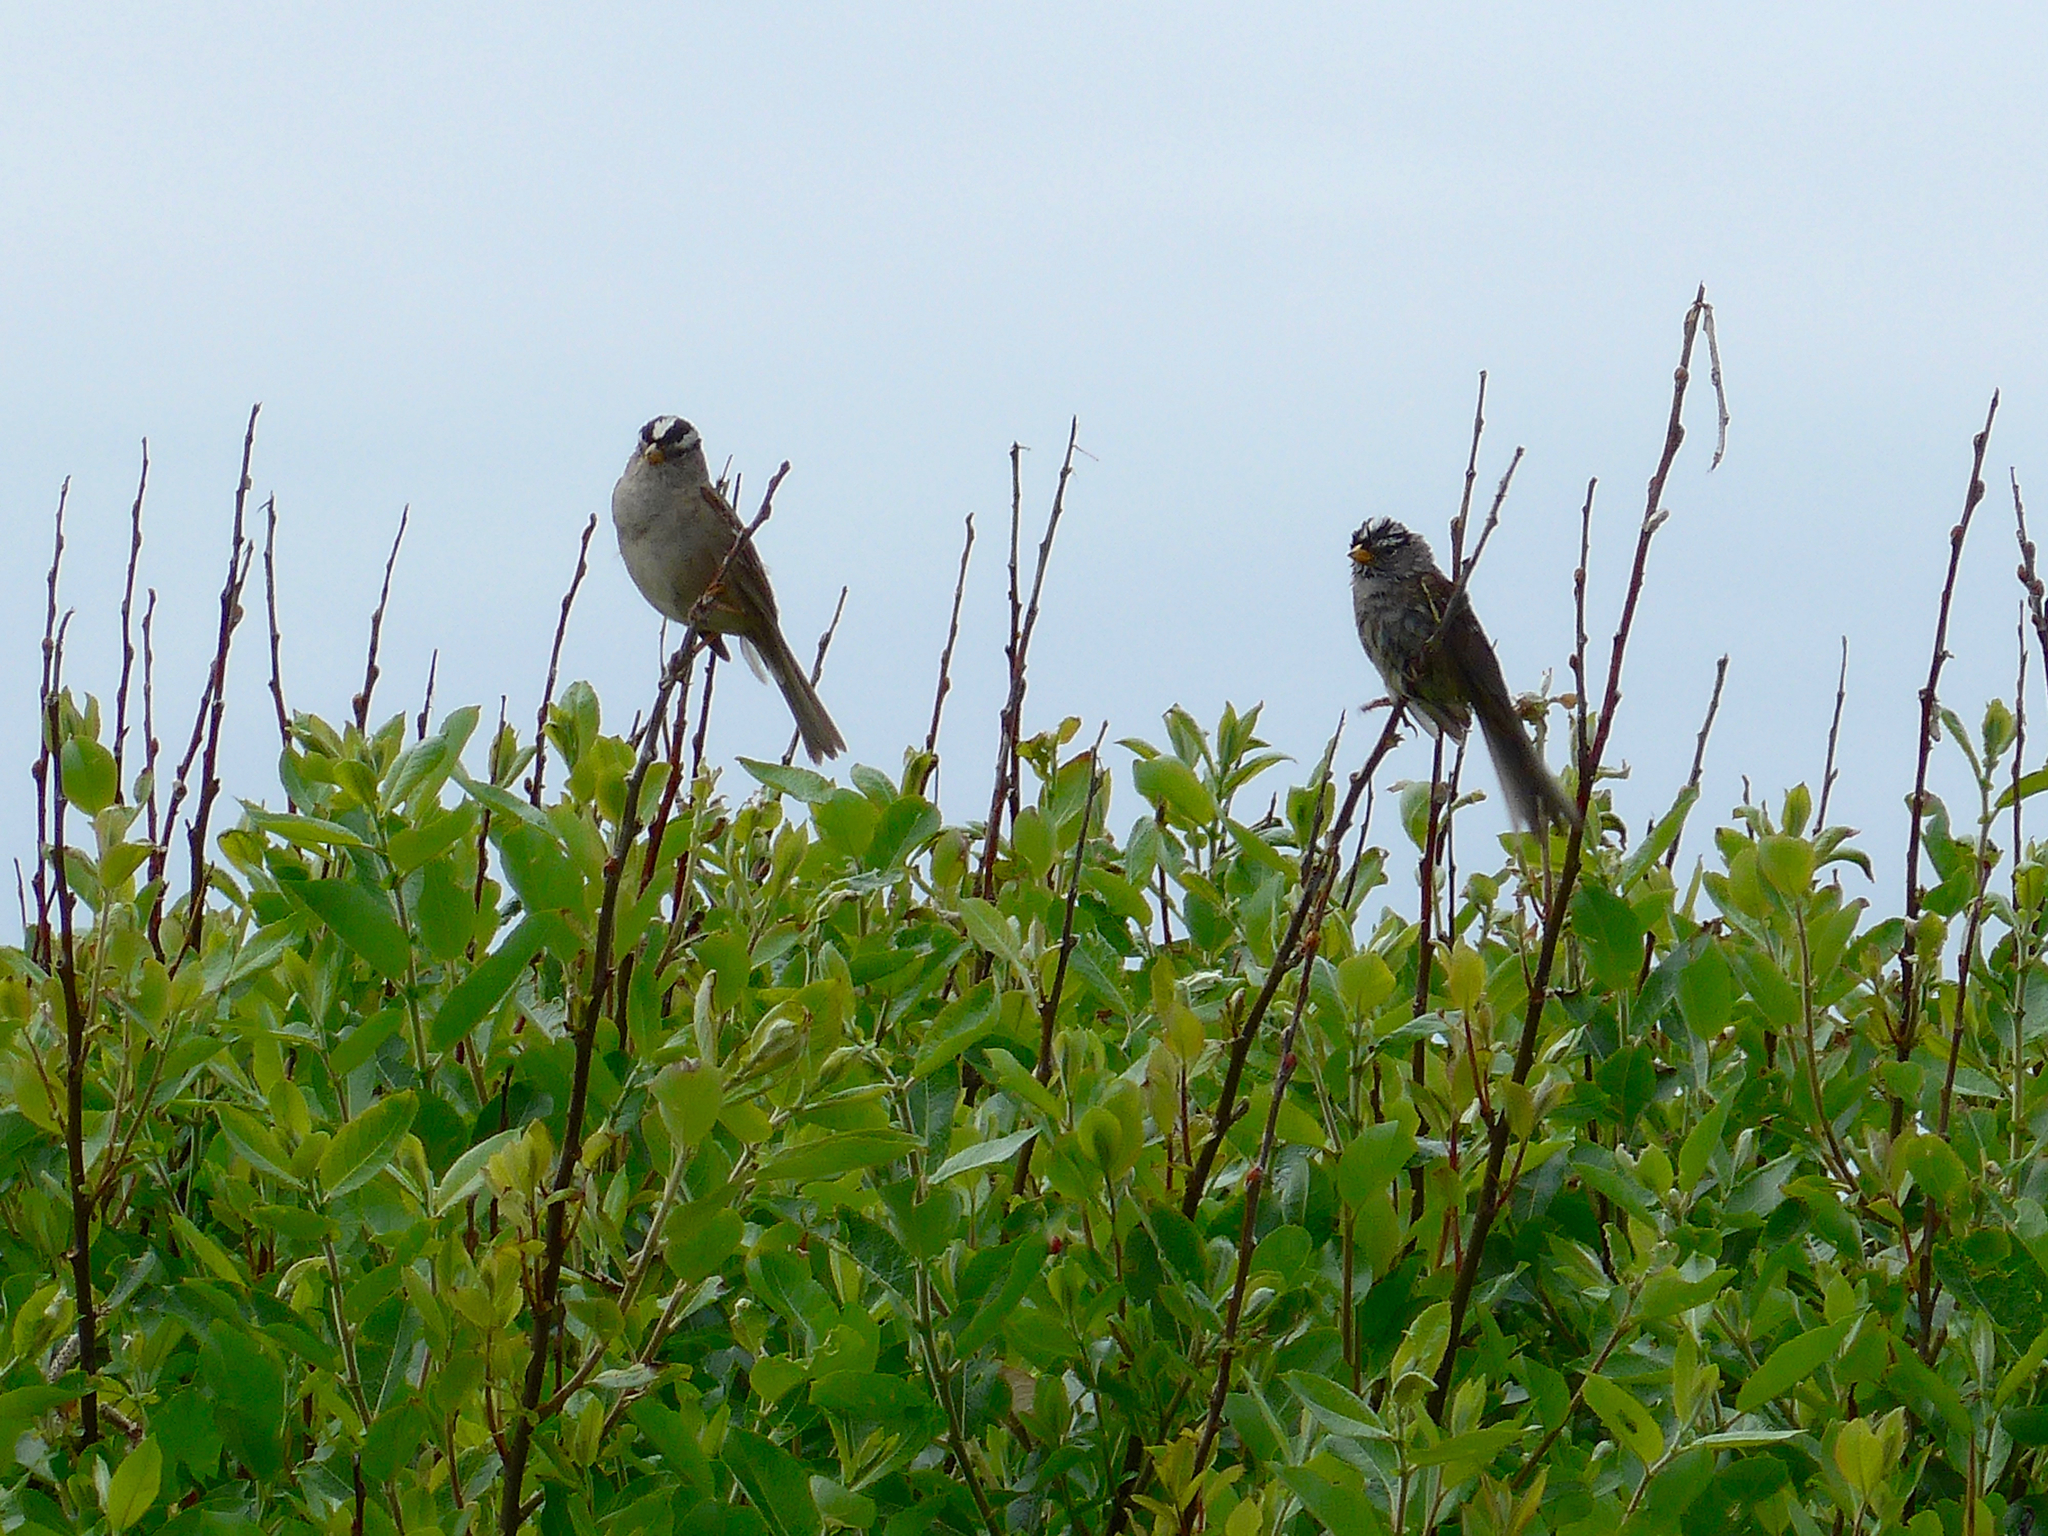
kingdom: Animalia
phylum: Chordata
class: Aves
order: Passeriformes
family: Passerellidae
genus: Zonotrichia
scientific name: Zonotrichia leucophrys
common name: White-crowned sparrow
